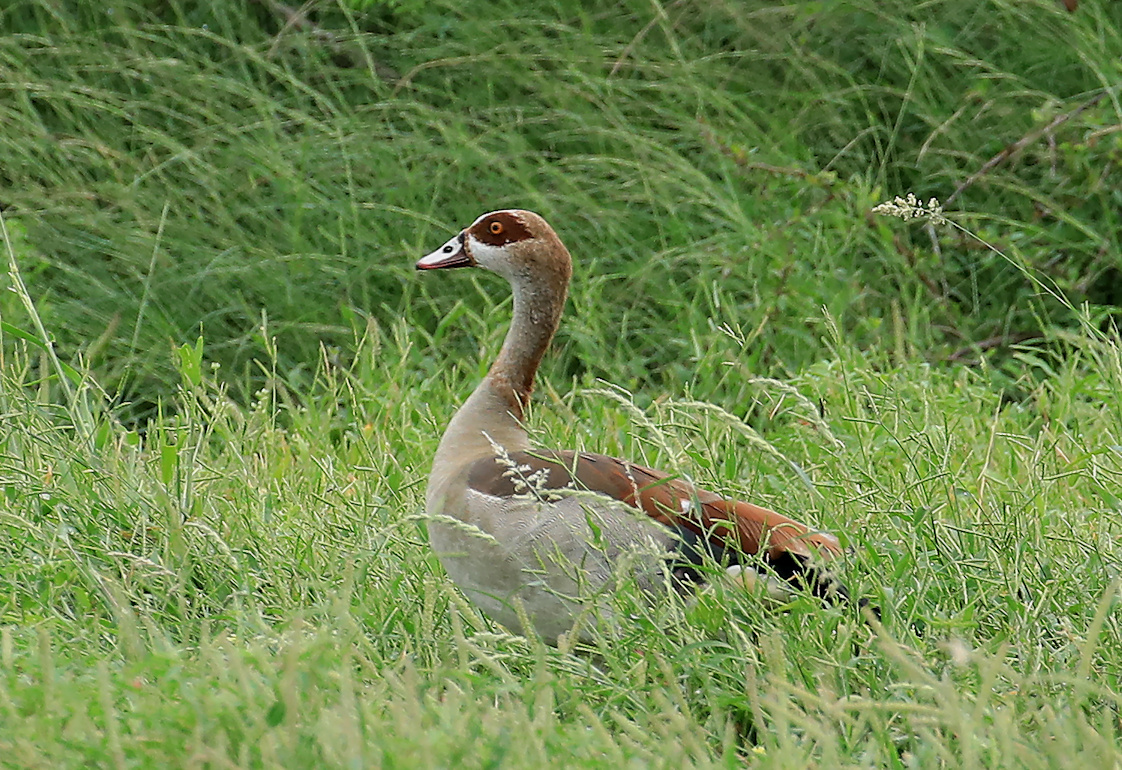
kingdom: Animalia
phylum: Chordata
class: Aves
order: Anseriformes
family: Anatidae
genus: Alopochen
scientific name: Alopochen aegyptiaca
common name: Egyptian goose
